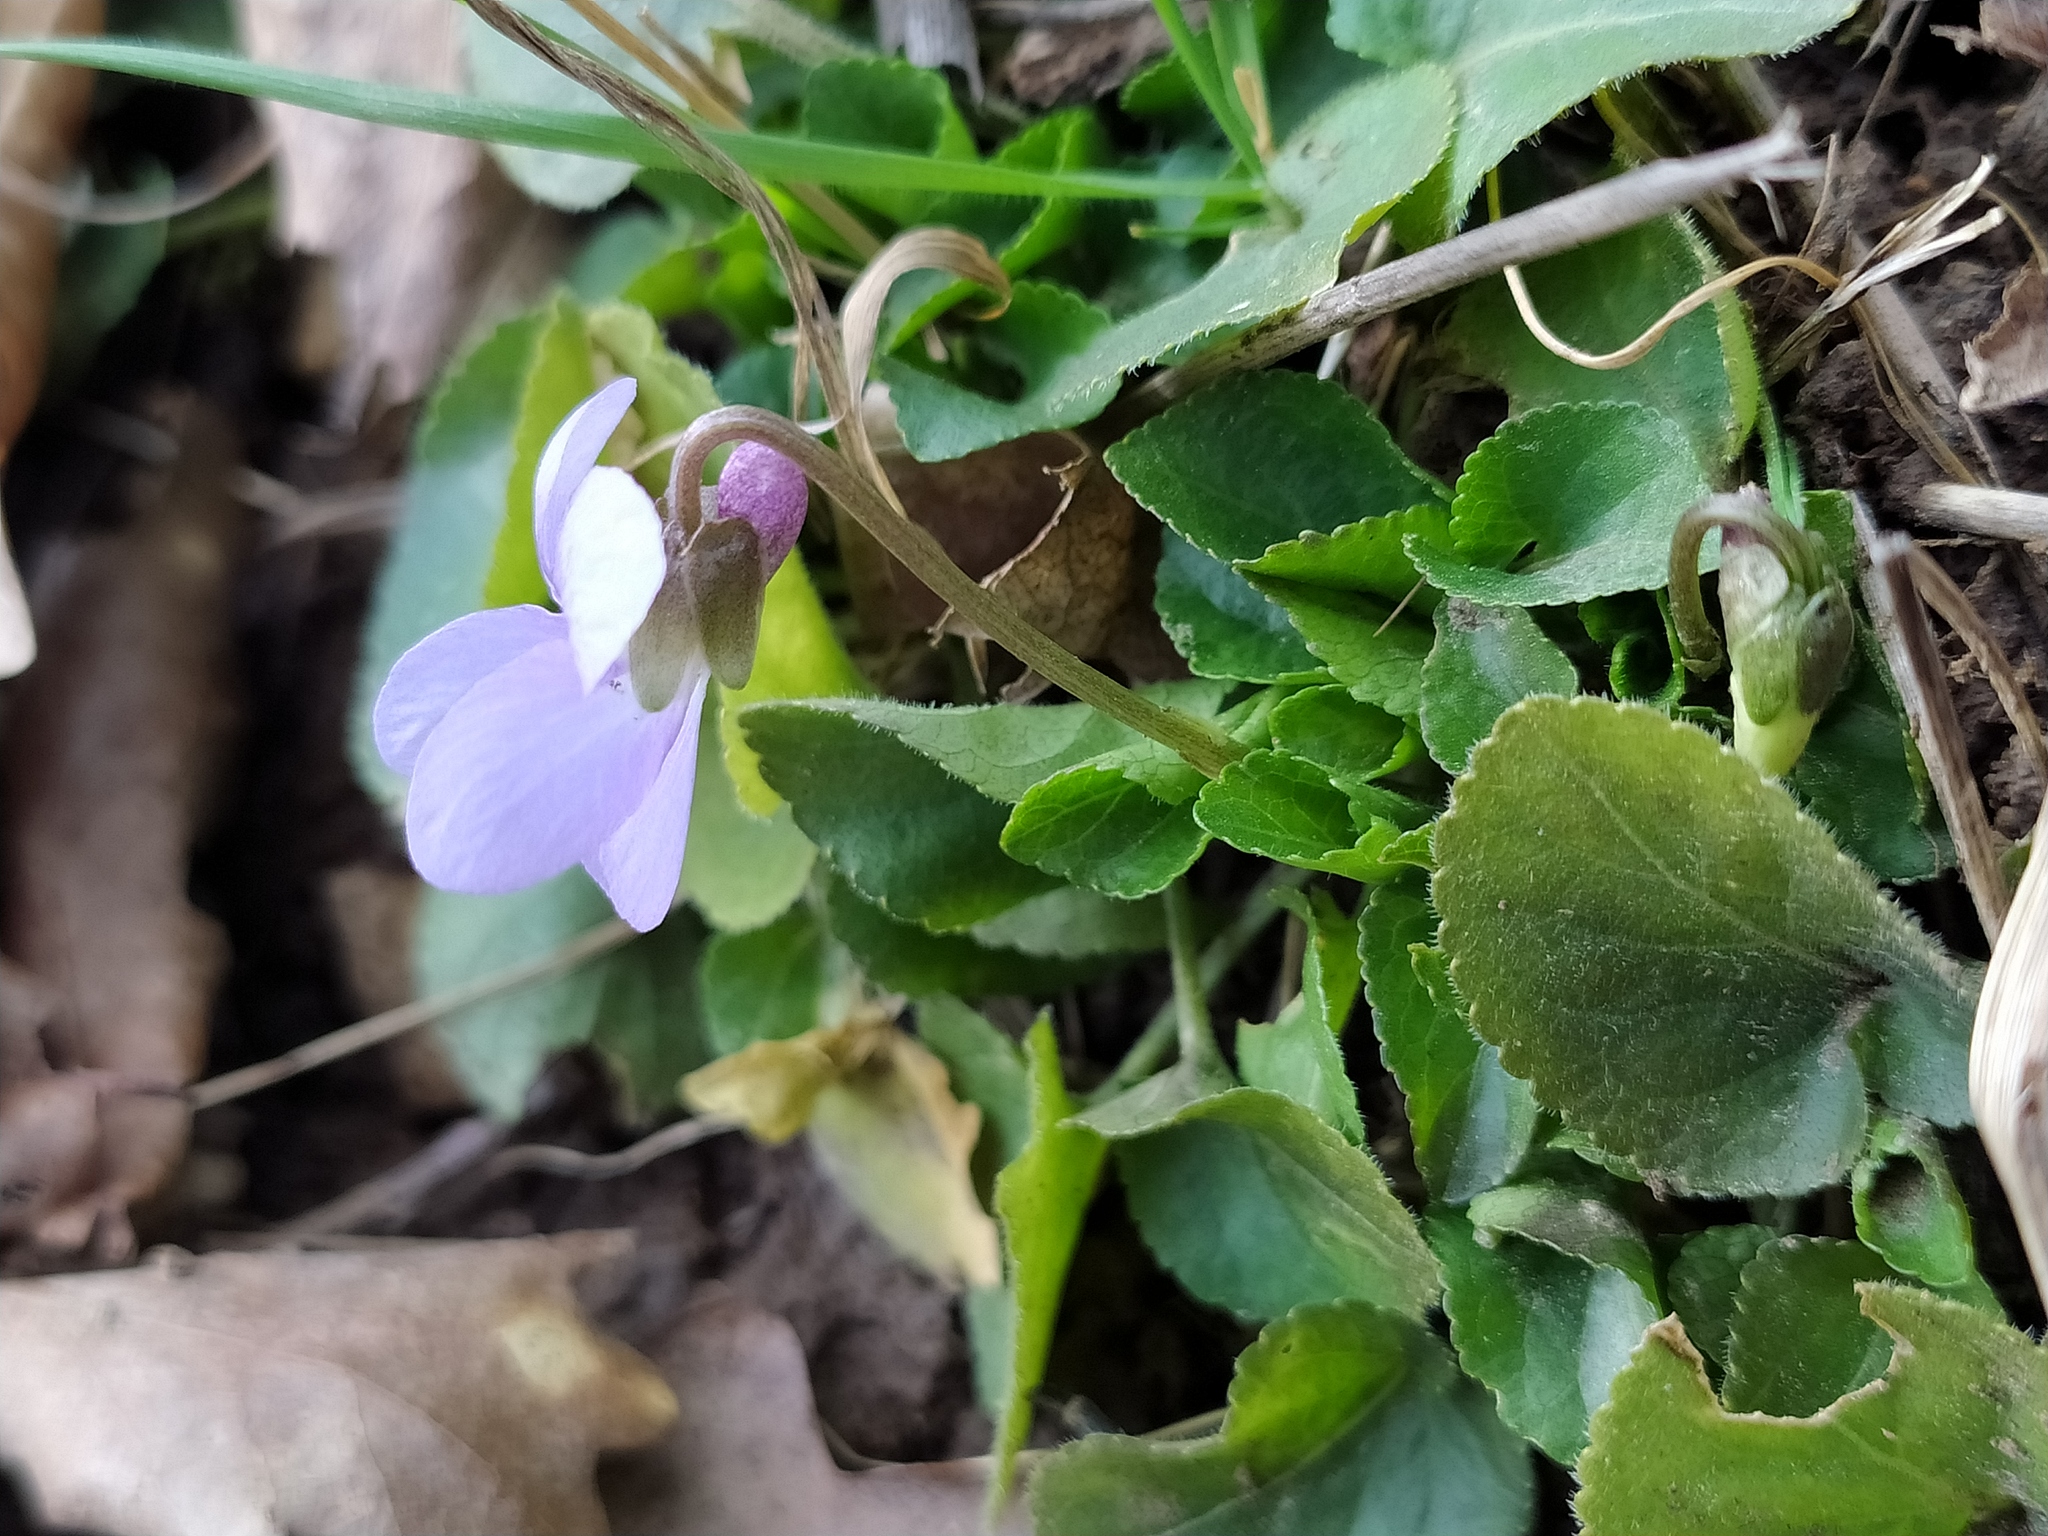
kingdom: Plantae
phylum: Tracheophyta
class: Magnoliopsida
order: Malpighiales
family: Violaceae
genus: Viola
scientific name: Viola hirta
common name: Hairy violet
